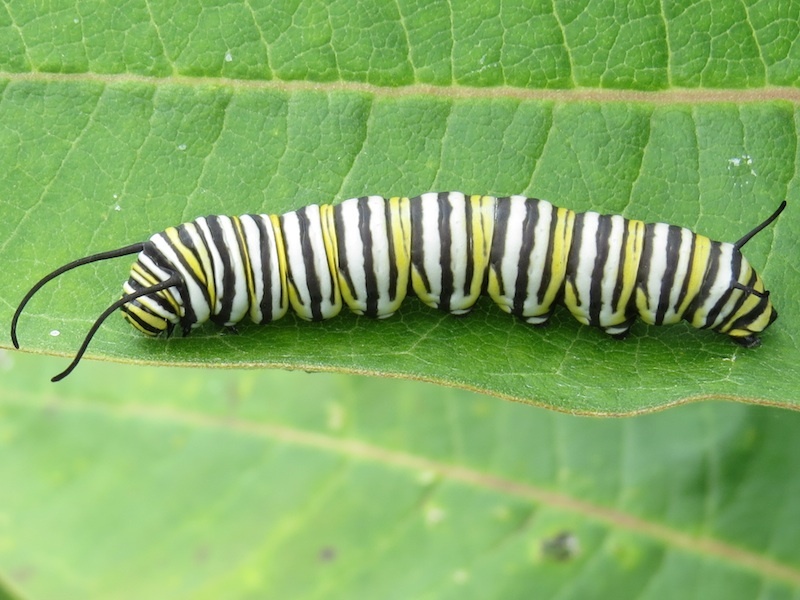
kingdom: Animalia
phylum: Arthropoda
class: Insecta
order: Lepidoptera
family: Nymphalidae
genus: Danaus
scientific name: Danaus plexippus
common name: Monarch
